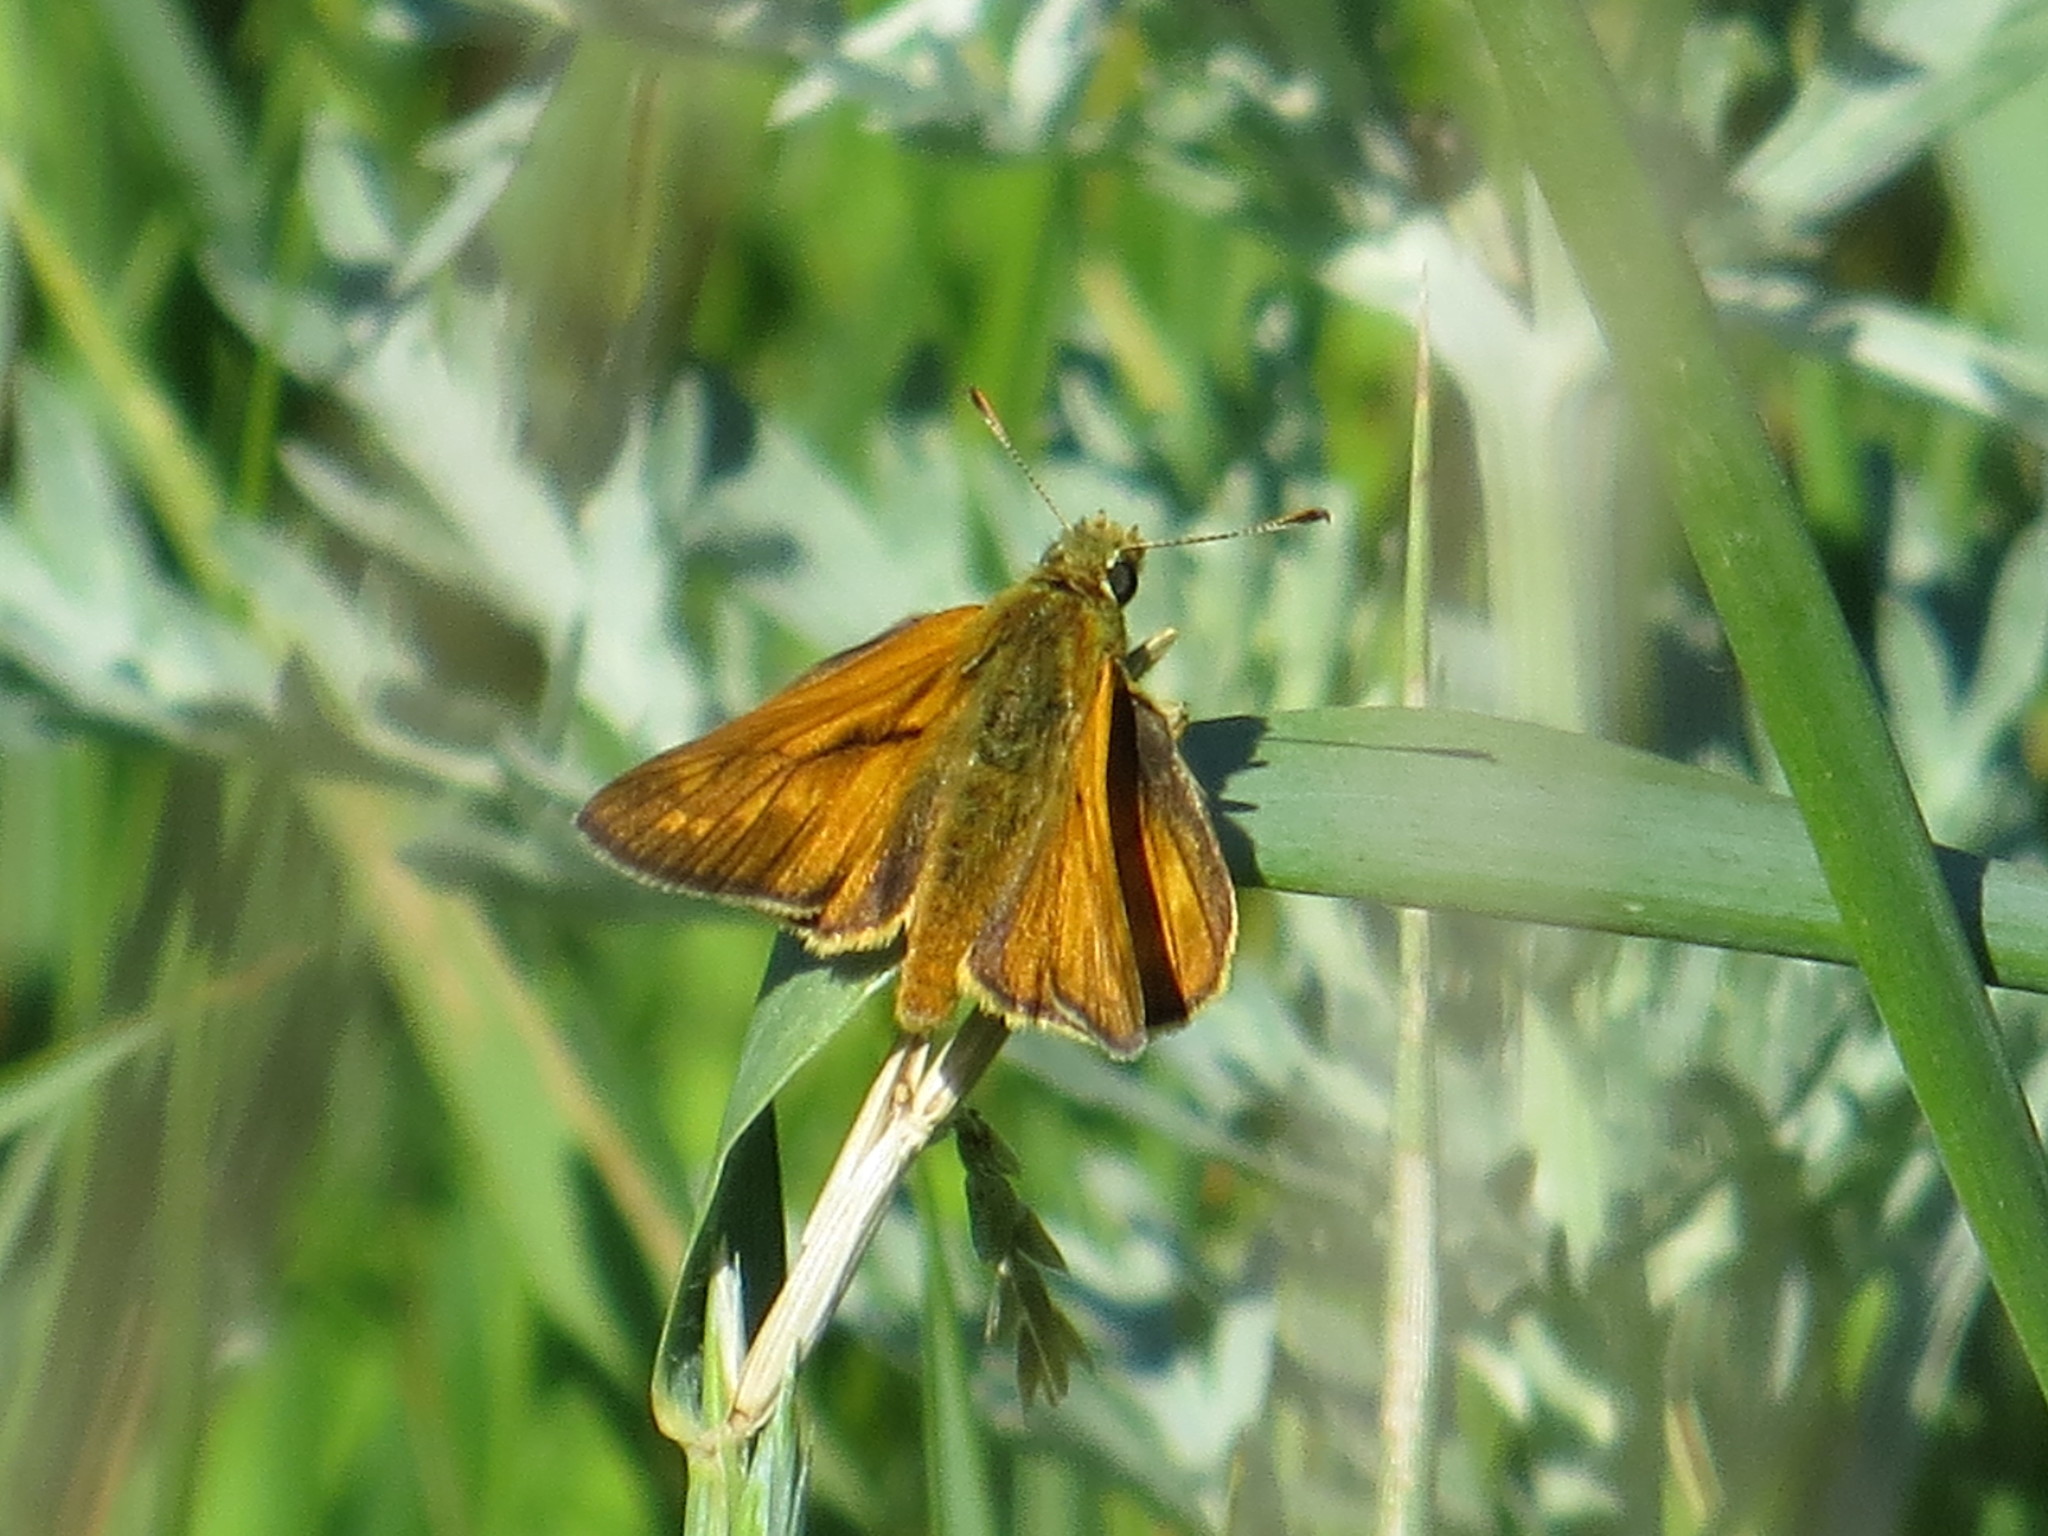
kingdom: Animalia
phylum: Arthropoda
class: Insecta
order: Lepidoptera
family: Hesperiidae
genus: Ochlodes
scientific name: Ochlodes venata
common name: Large skipper
